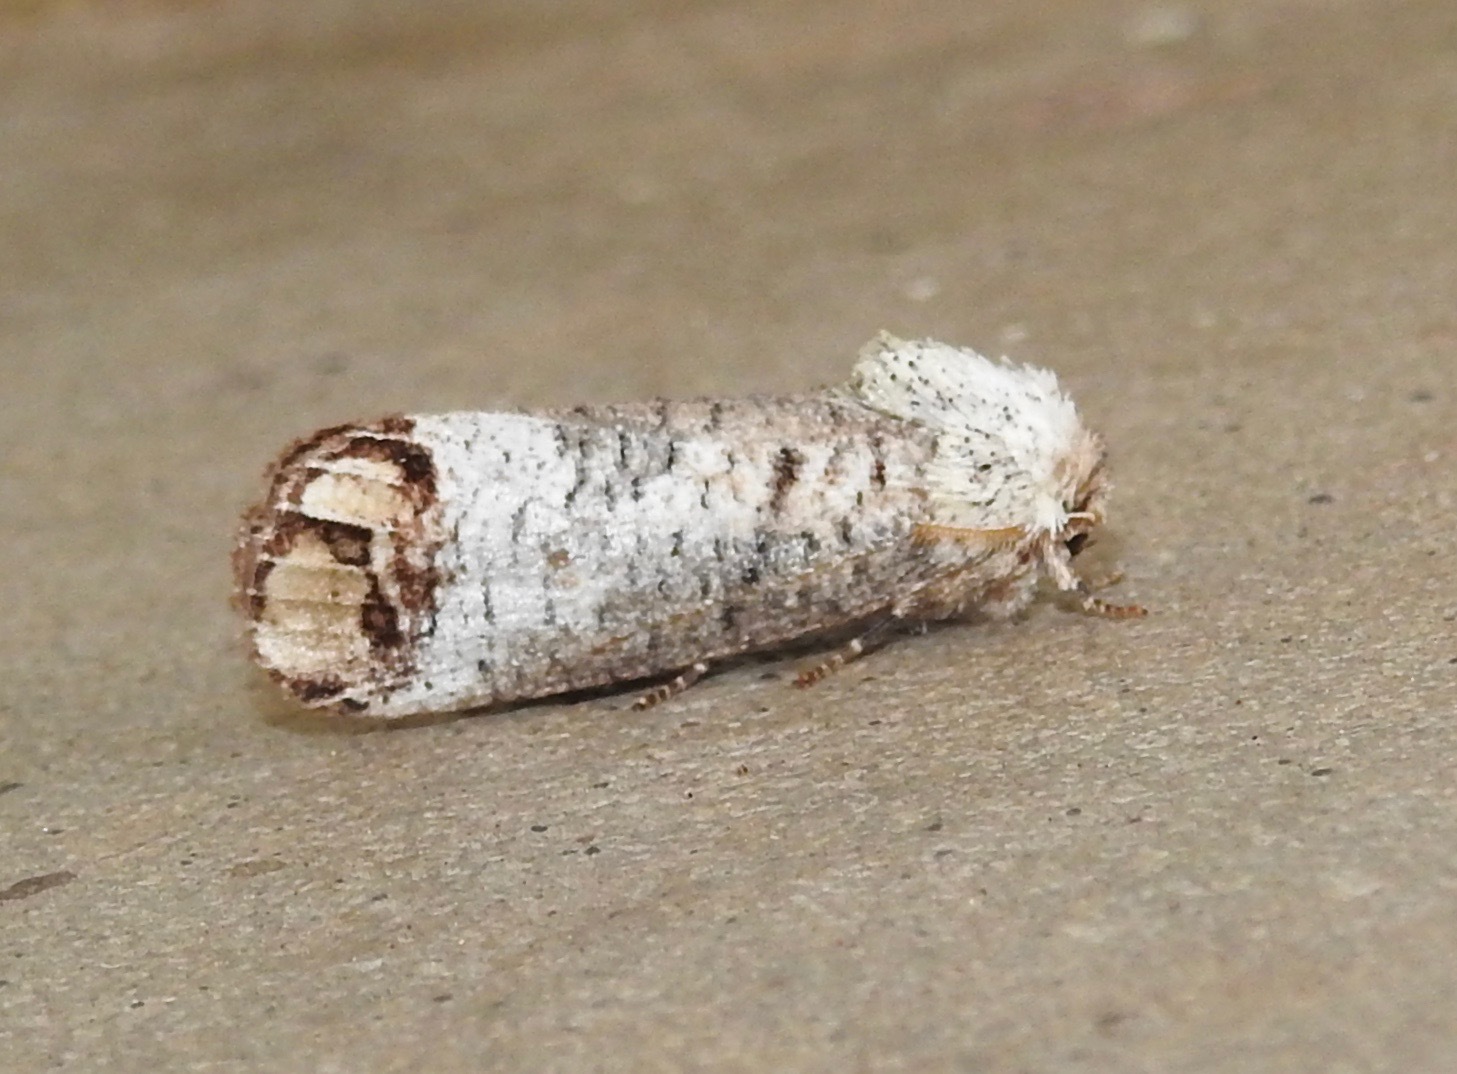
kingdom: Animalia
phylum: Arthropoda
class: Insecta
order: Lepidoptera
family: Cossidae
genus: Cossula
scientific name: Cossula magnifica
